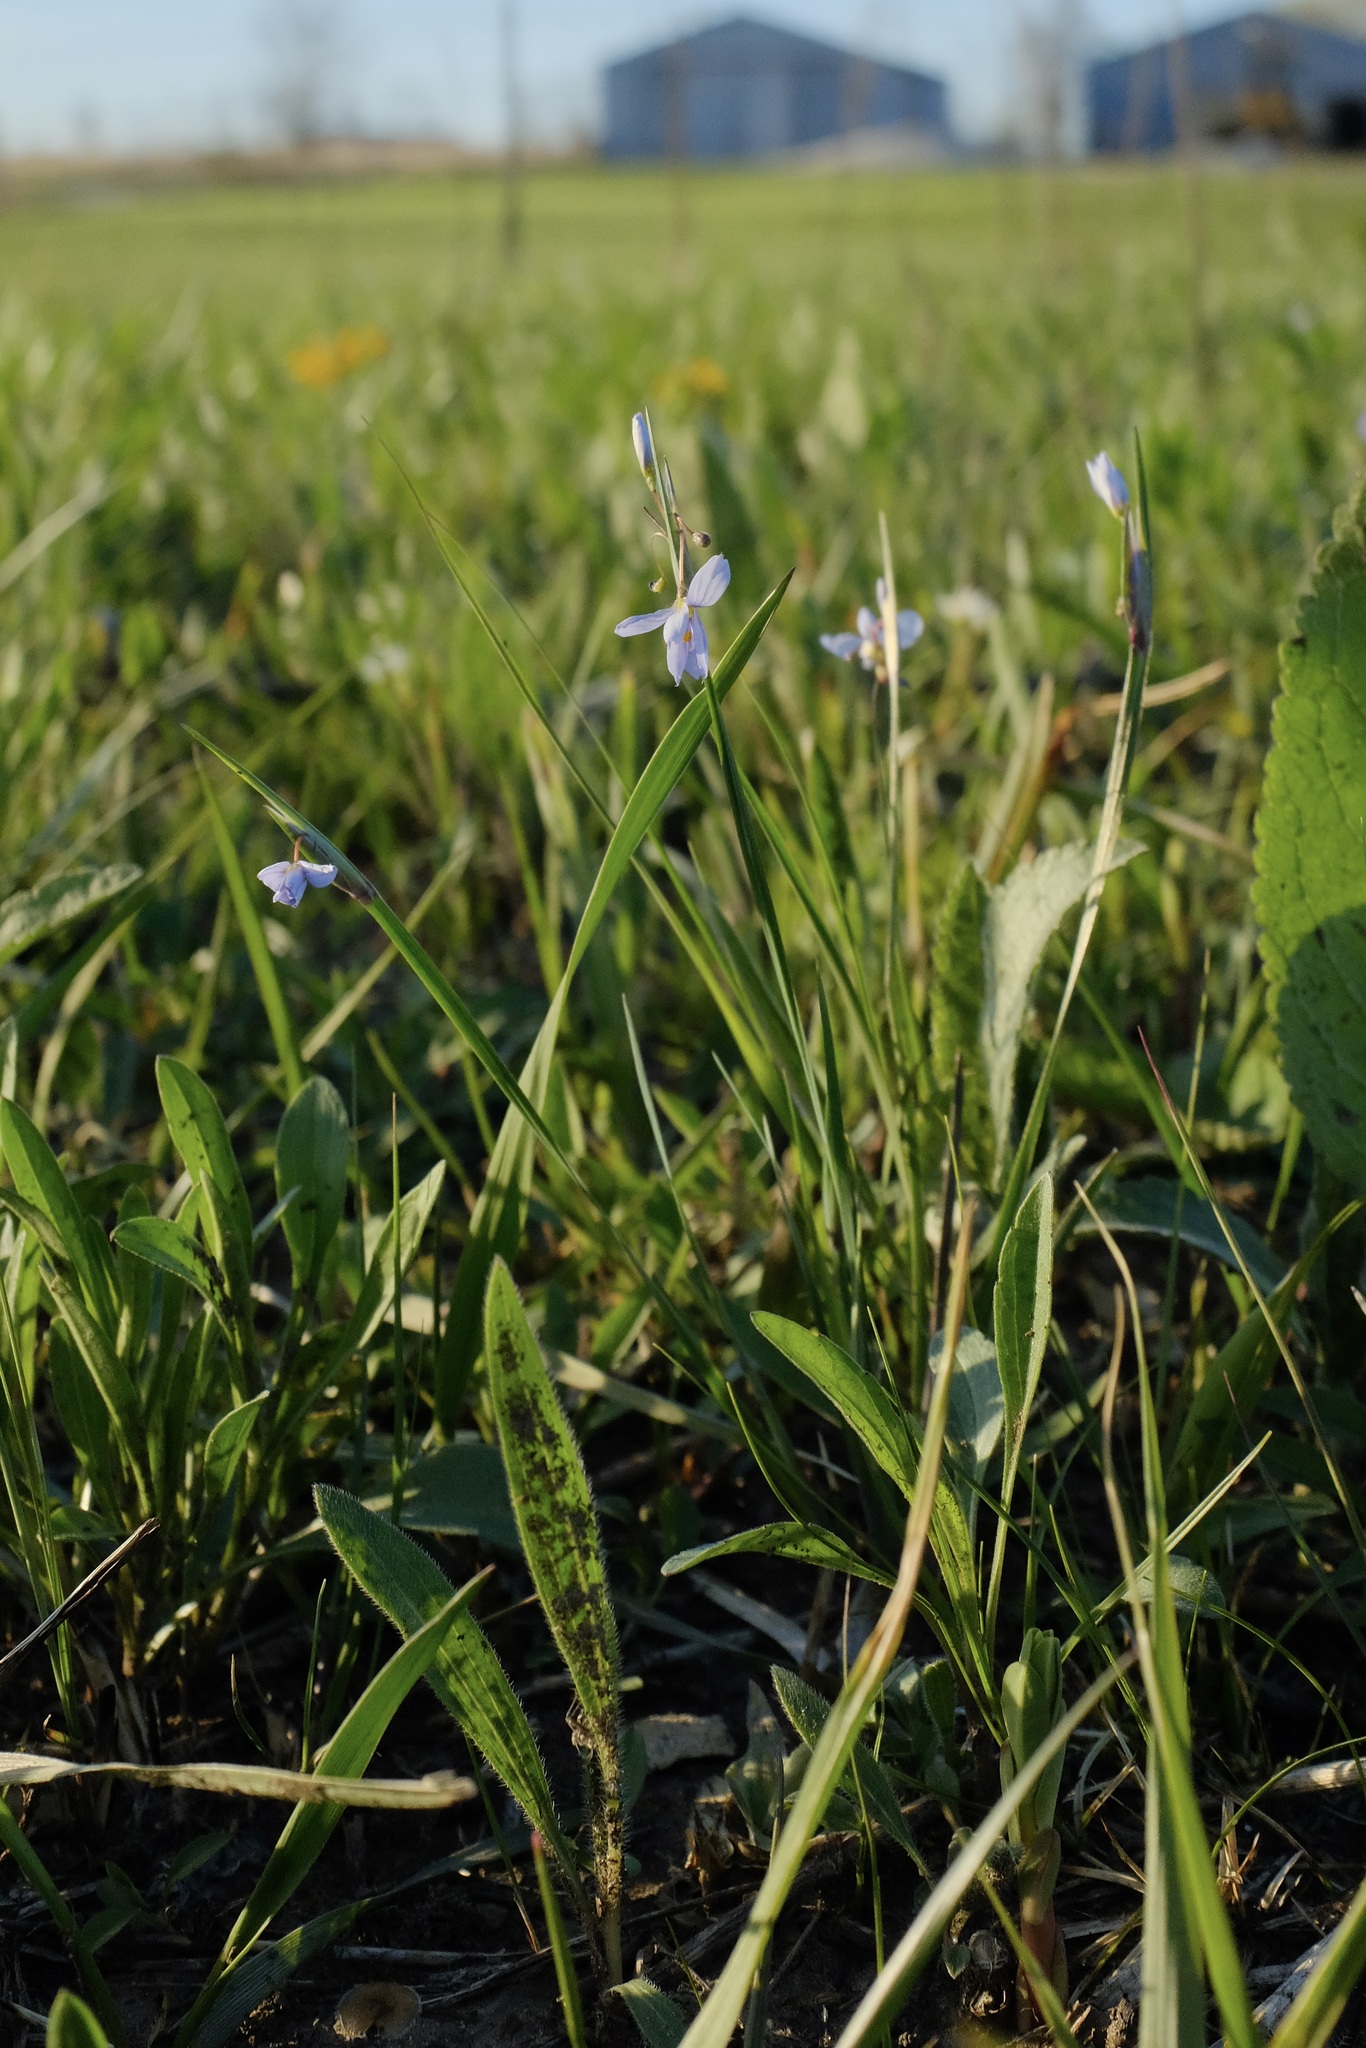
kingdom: Plantae
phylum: Tracheophyta
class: Liliopsida
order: Asparagales
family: Iridaceae
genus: Sisyrinchium
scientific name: Sisyrinchium campestre
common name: Prairie blue-eyed-grass
